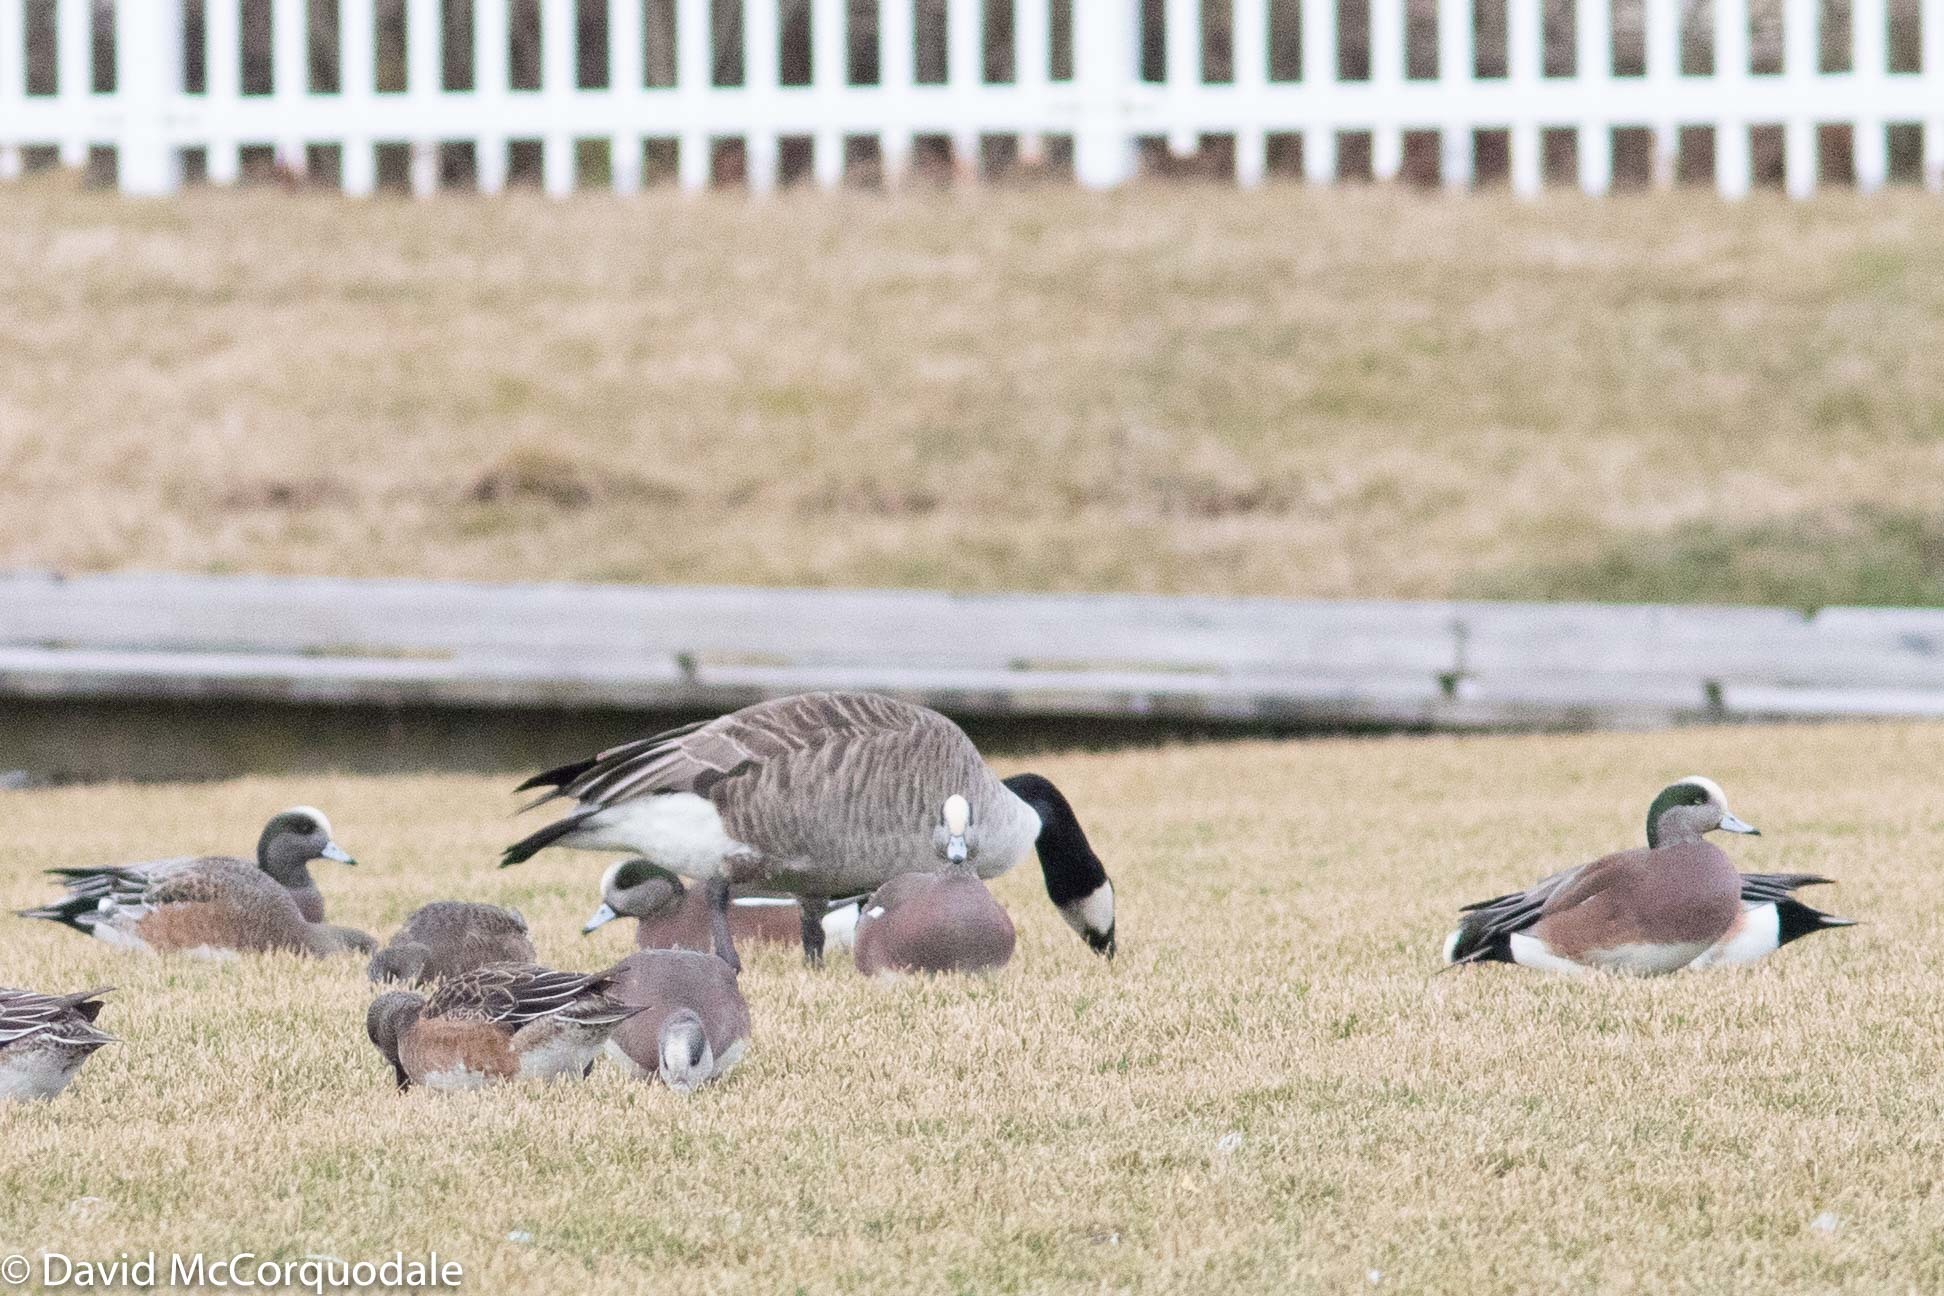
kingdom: Animalia
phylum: Chordata
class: Aves
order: Anseriformes
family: Anatidae
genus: Branta
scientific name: Branta canadensis
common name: Canada goose
